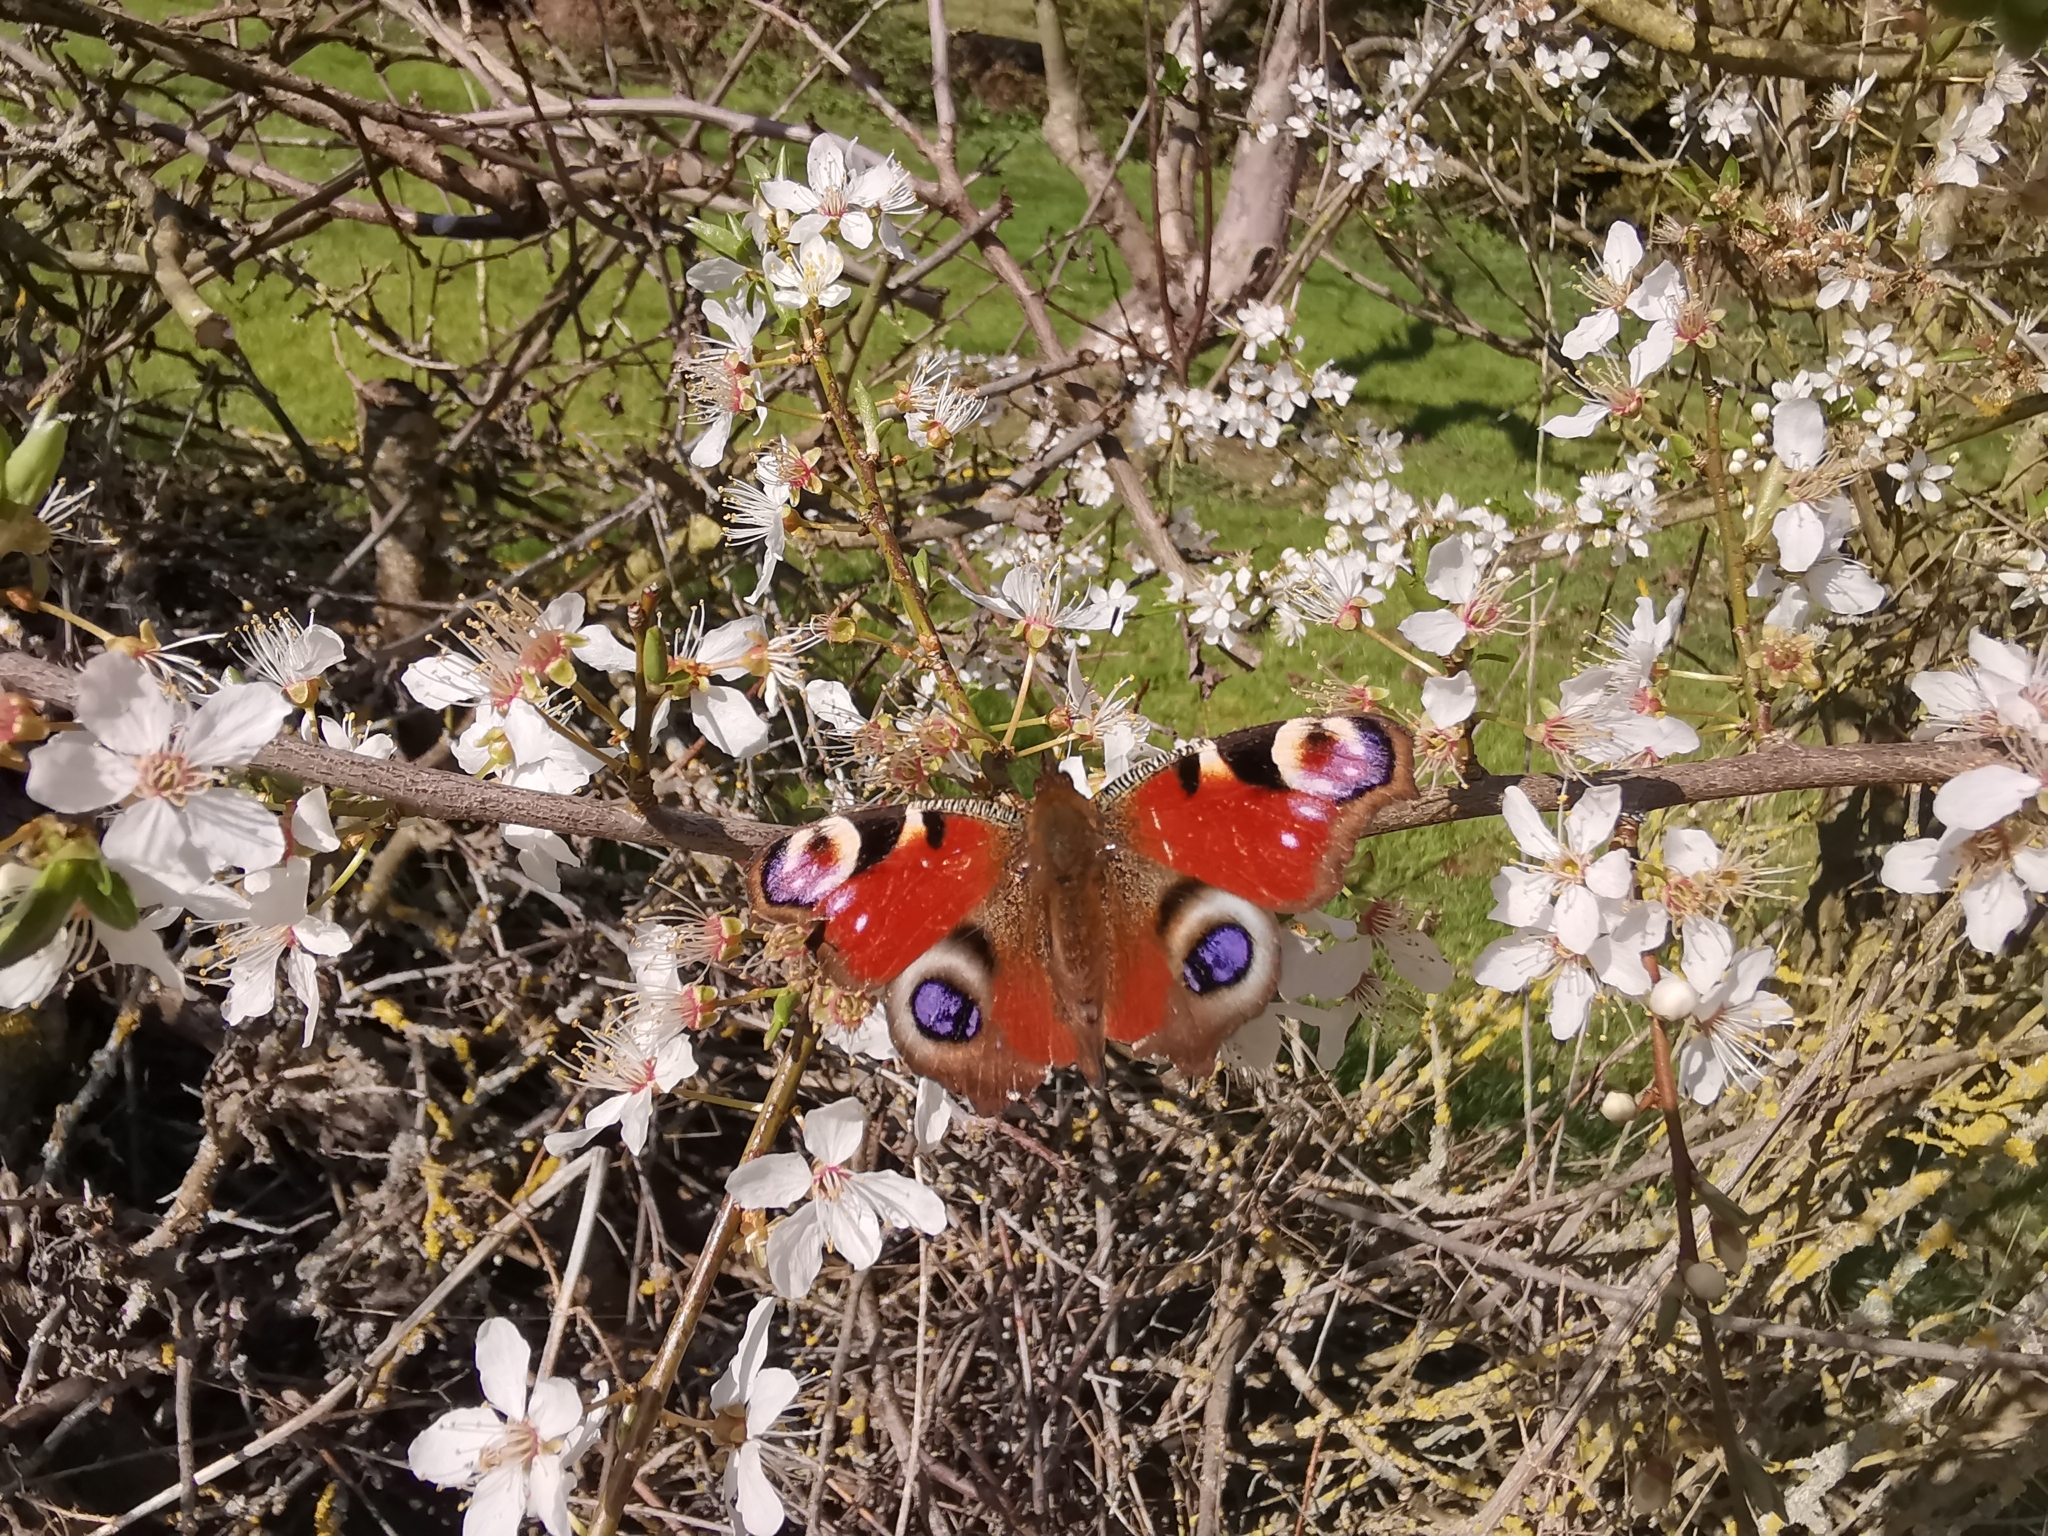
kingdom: Animalia
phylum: Arthropoda
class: Insecta
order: Lepidoptera
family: Nymphalidae
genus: Aglais
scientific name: Aglais io
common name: Peacock
